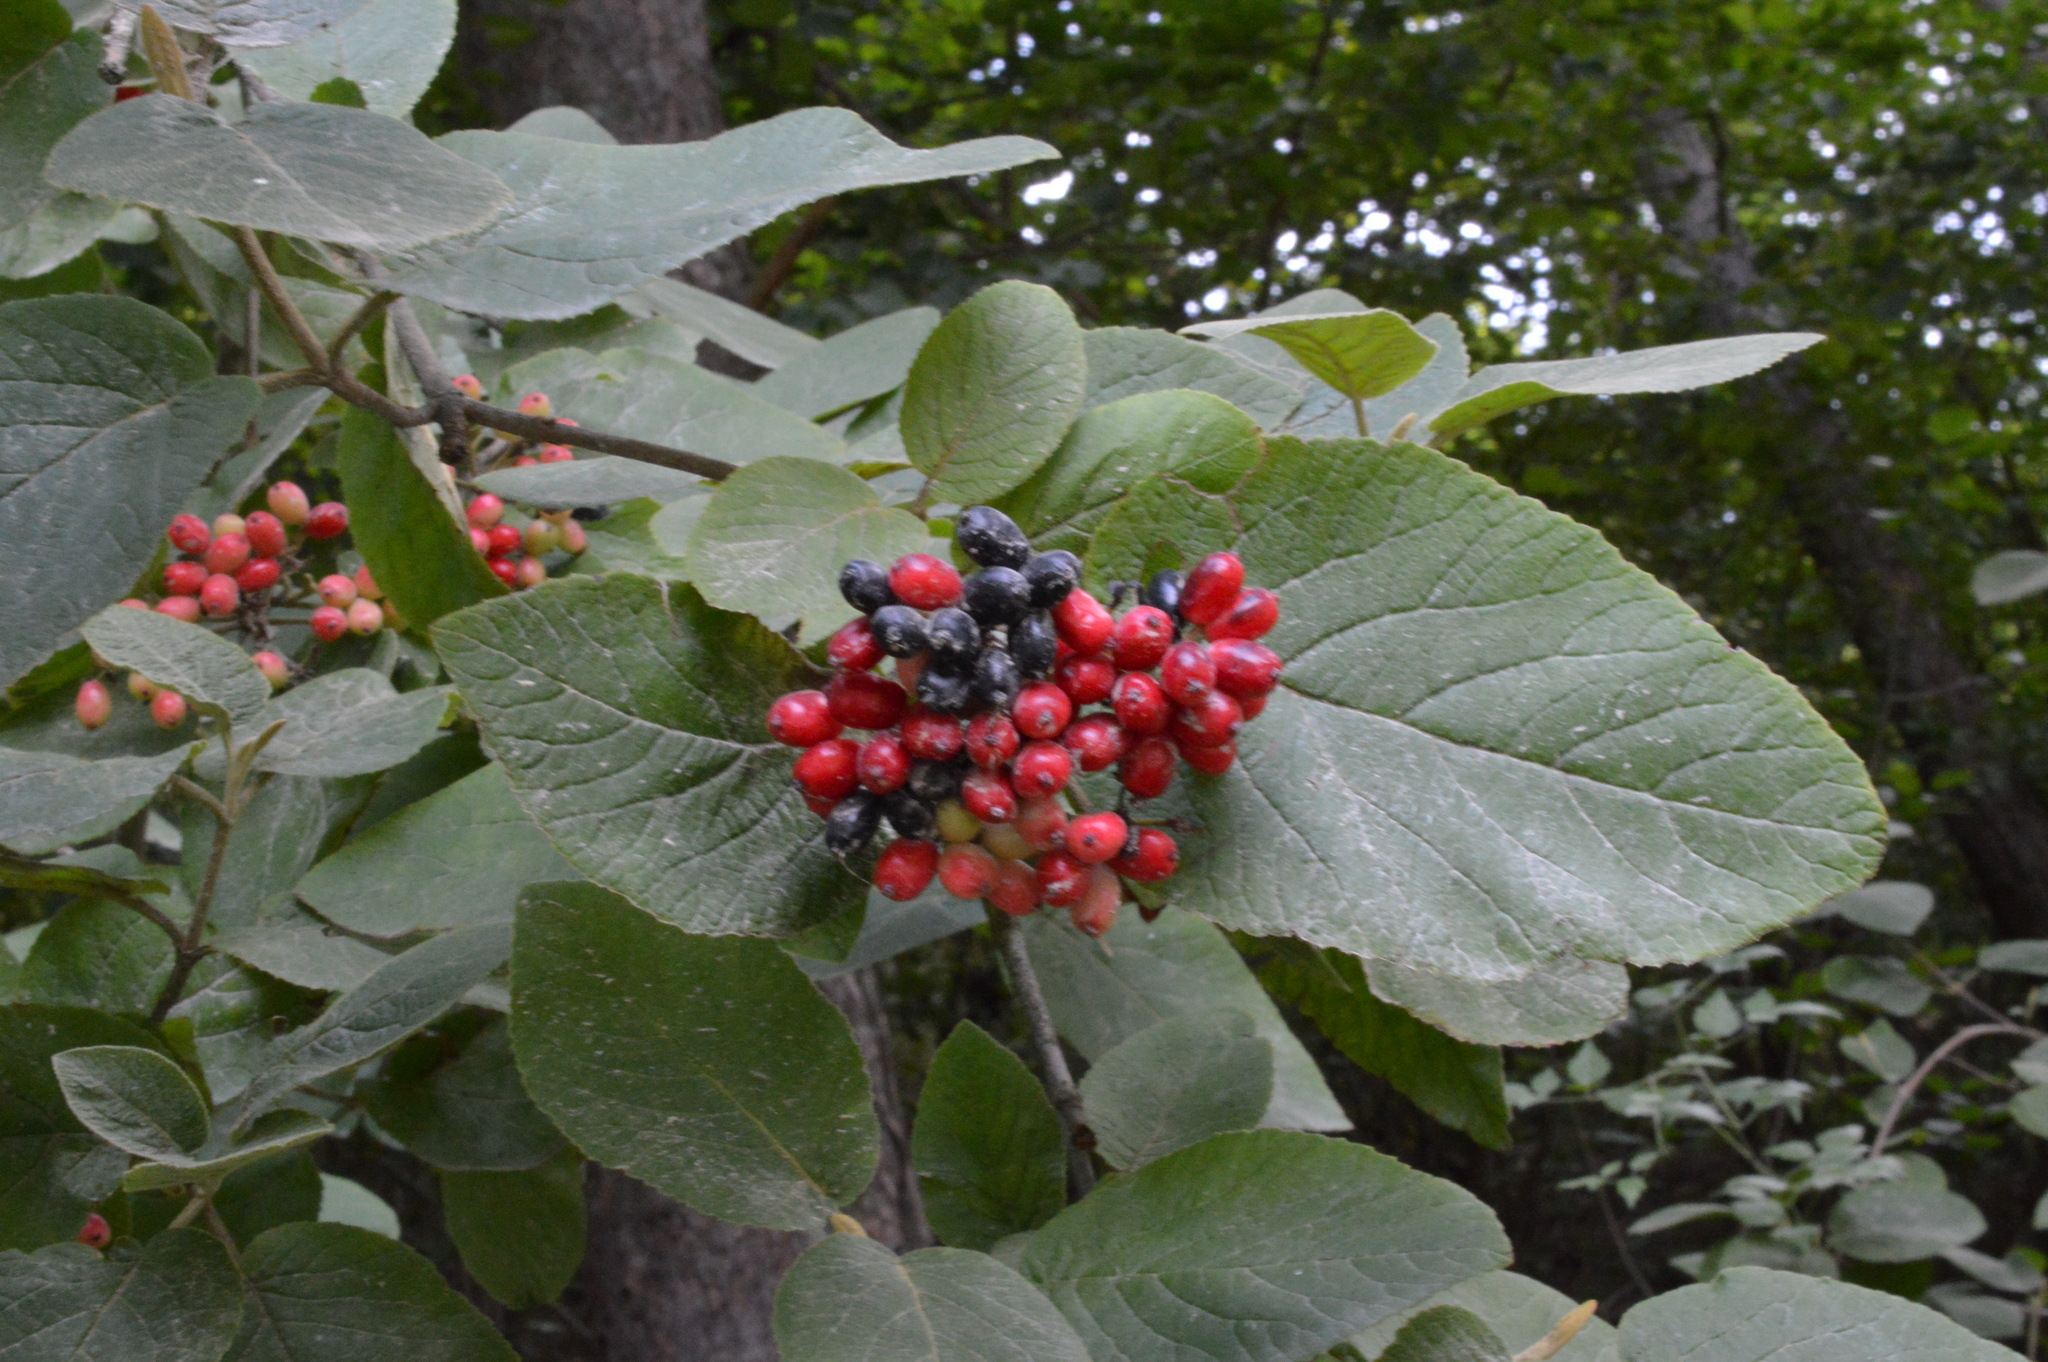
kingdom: Plantae
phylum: Tracheophyta
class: Magnoliopsida
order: Dipsacales
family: Viburnaceae
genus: Viburnum
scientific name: Viburnum lantana
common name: Wayfaring tree
